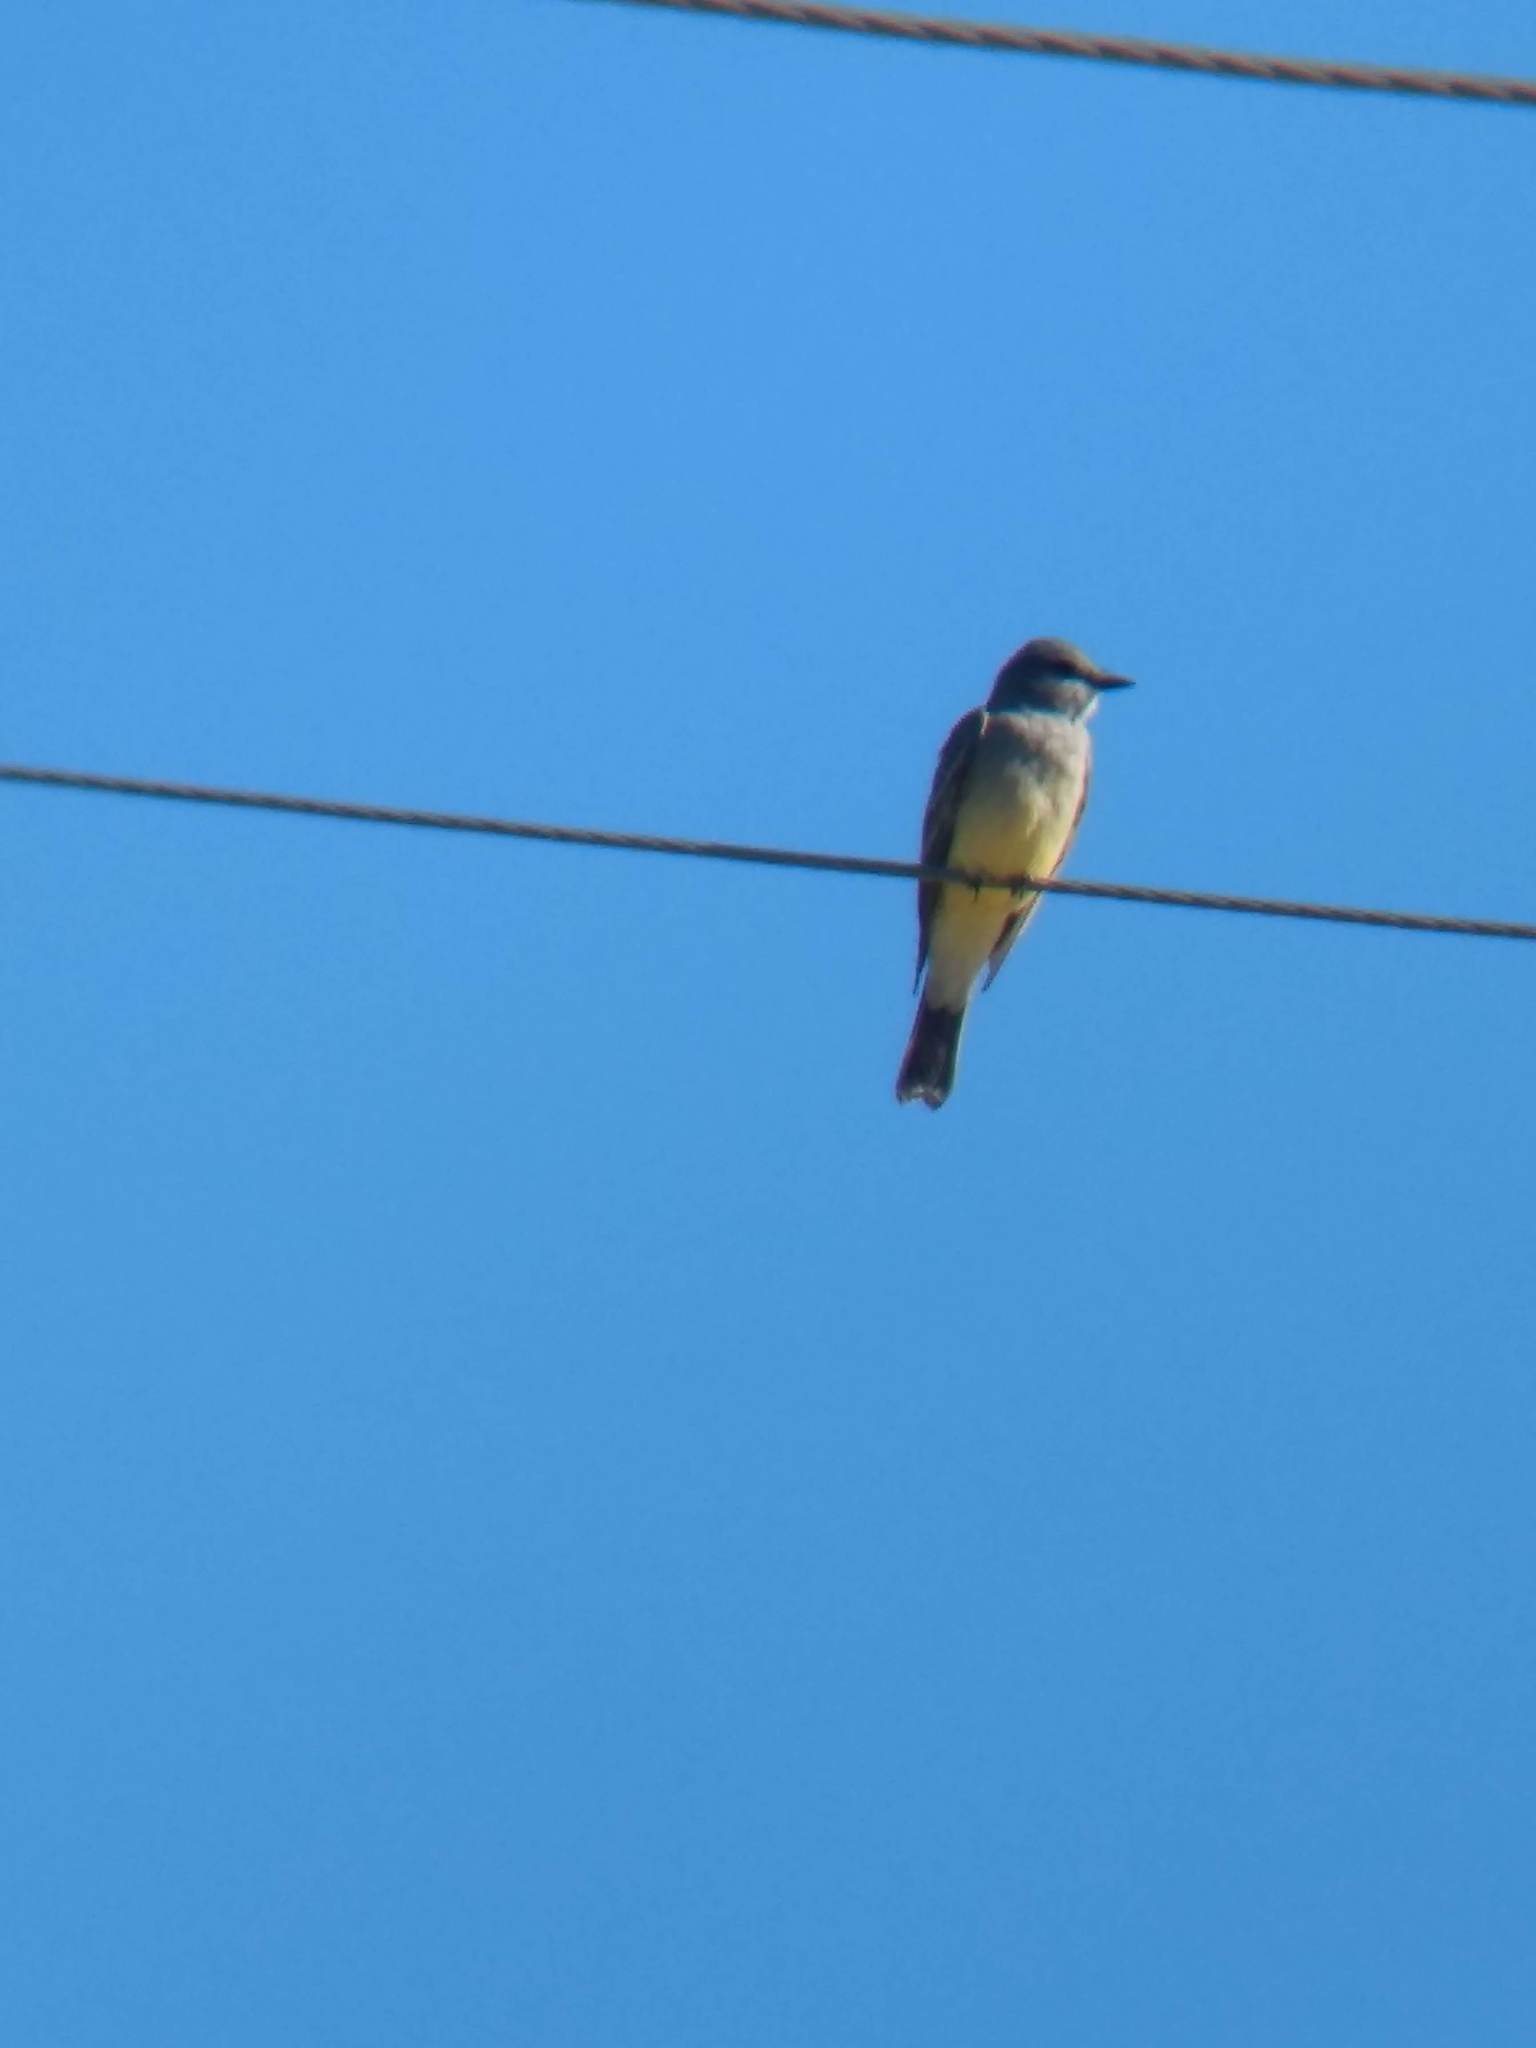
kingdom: Animalia
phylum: Chordata
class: Aves
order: Passeriformes
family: Tyrannidae
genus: Tyrannus
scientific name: Tyrannus vociferans
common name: Cassin's kingbird
